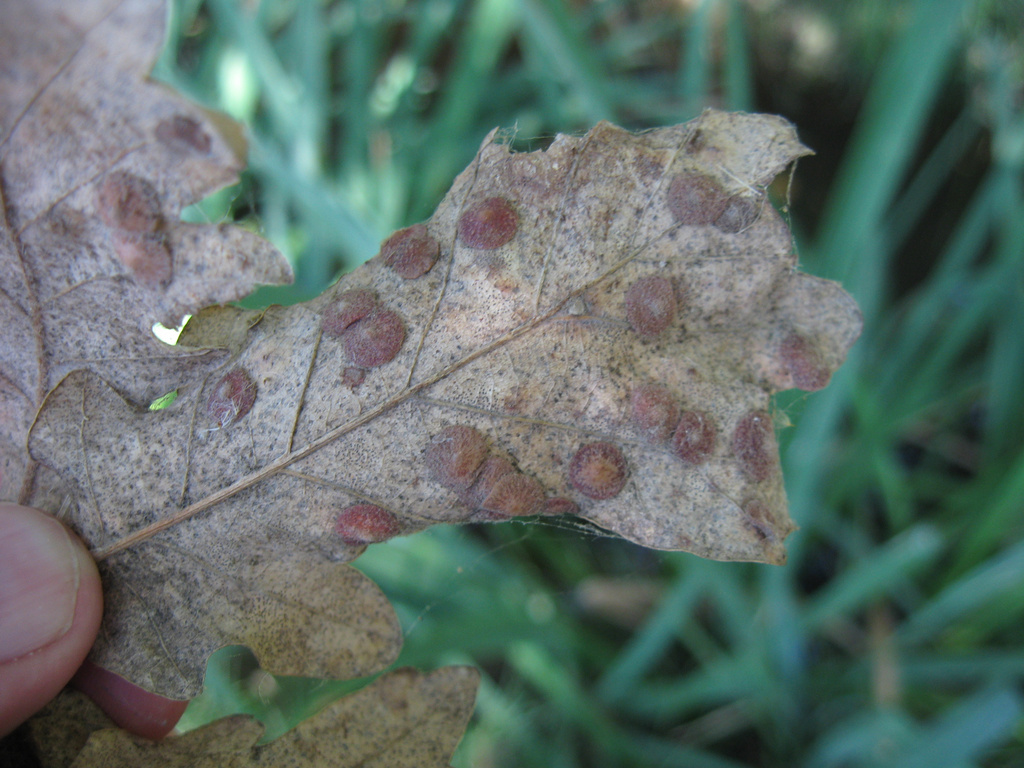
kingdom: Animalia
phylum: Arthropoda
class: Insecta
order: Hymenoptera
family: Cynipidae
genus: Neuroterus
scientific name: Neuroterus quercusbaccarum
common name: Common spangle gall
